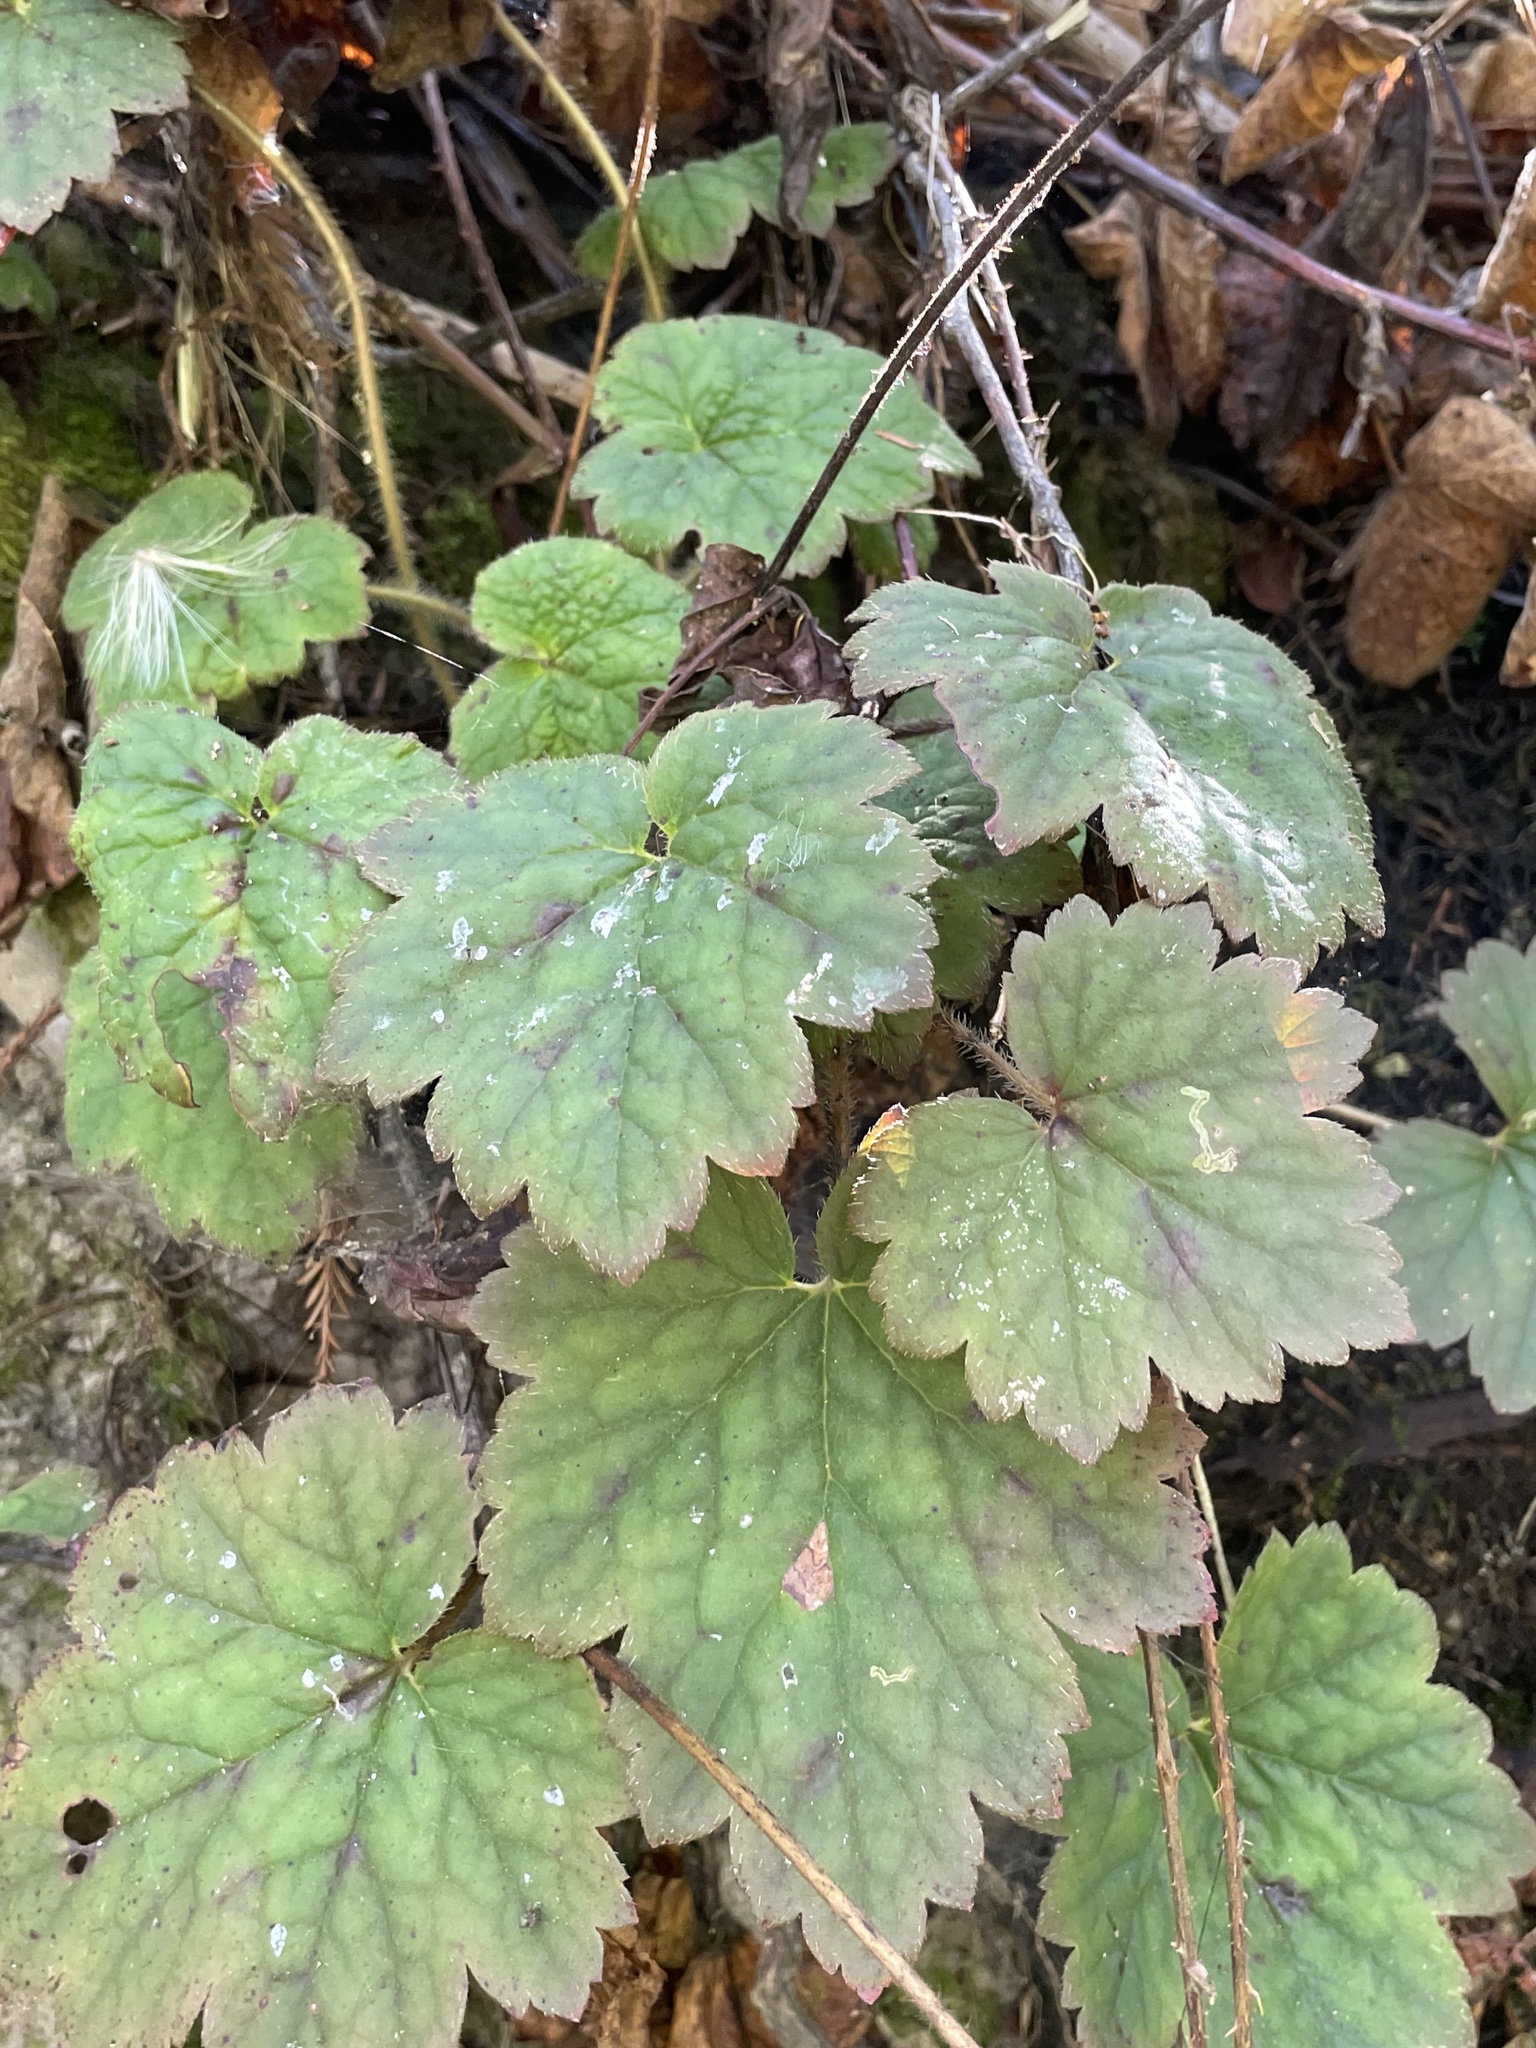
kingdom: Plantae
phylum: Tracheophyta
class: Magnoliopsida
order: Saxifragales
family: Saxifragaceae
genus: Tellima
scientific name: Tellima grandiflora
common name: Fringecups
